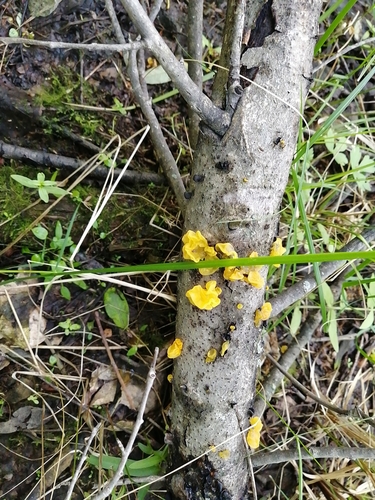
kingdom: Fungi
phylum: Basidiomycota
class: Tremellomycetes
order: Tremellales
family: Tremellaceae
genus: Tremella
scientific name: Tremella mesenterica
